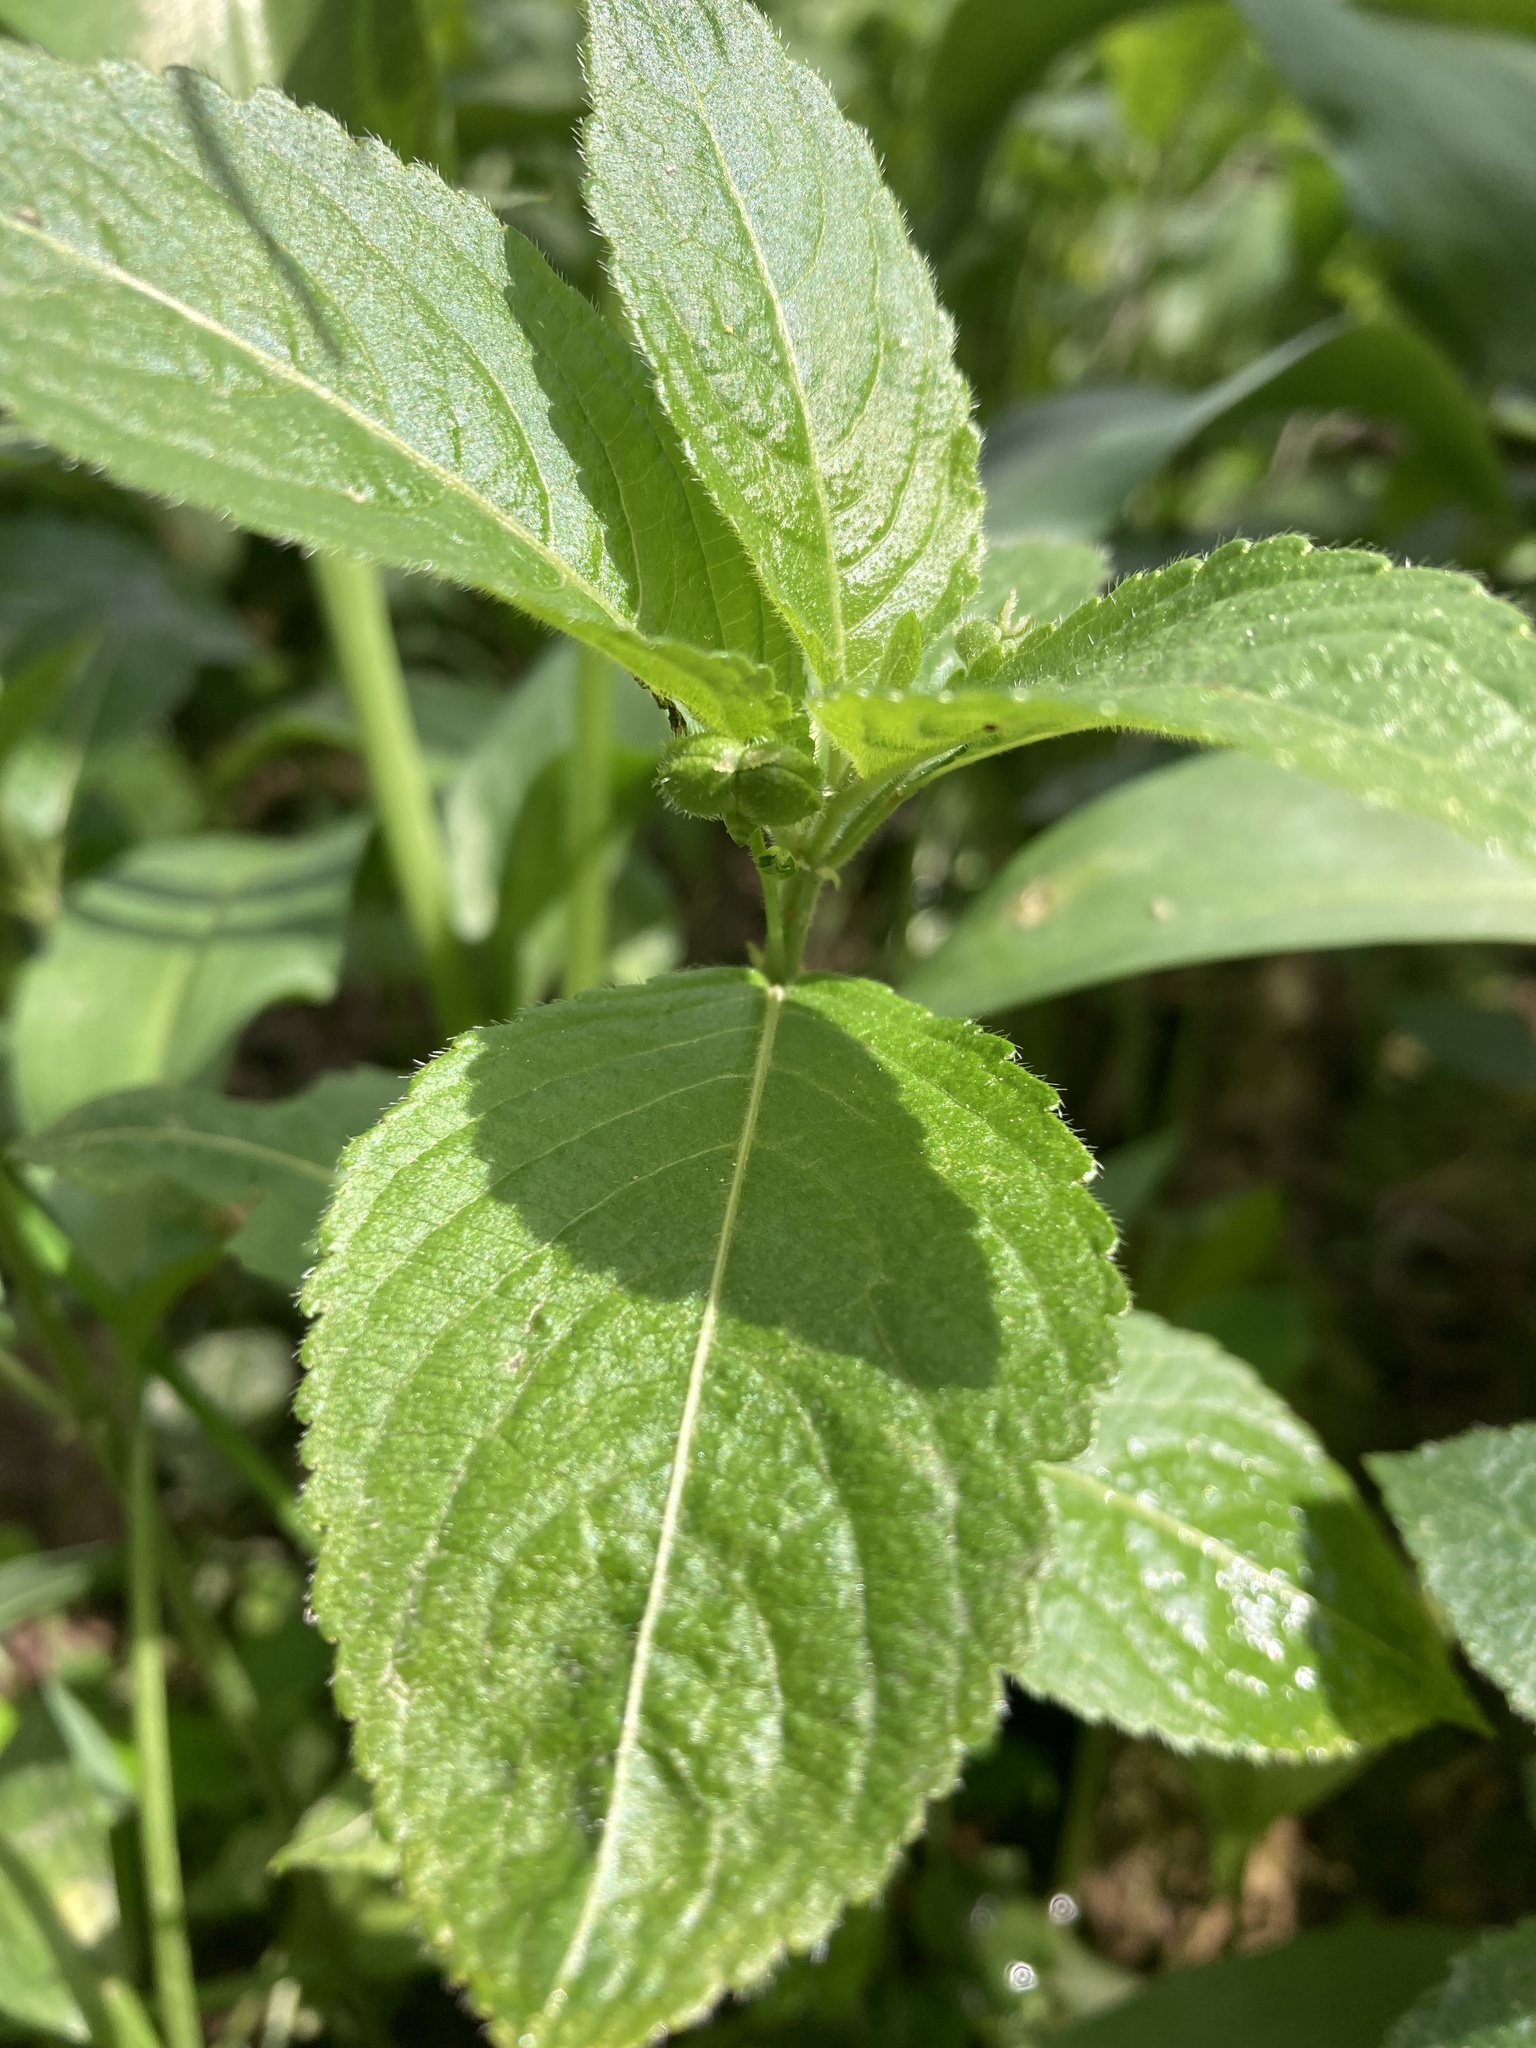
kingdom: Plantae
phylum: Tracheophyta
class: Magnoliopsida
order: Malpighiales
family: Euphorbiaceae
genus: Mercurialis
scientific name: Mercurialis perennis
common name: Dog mercury
